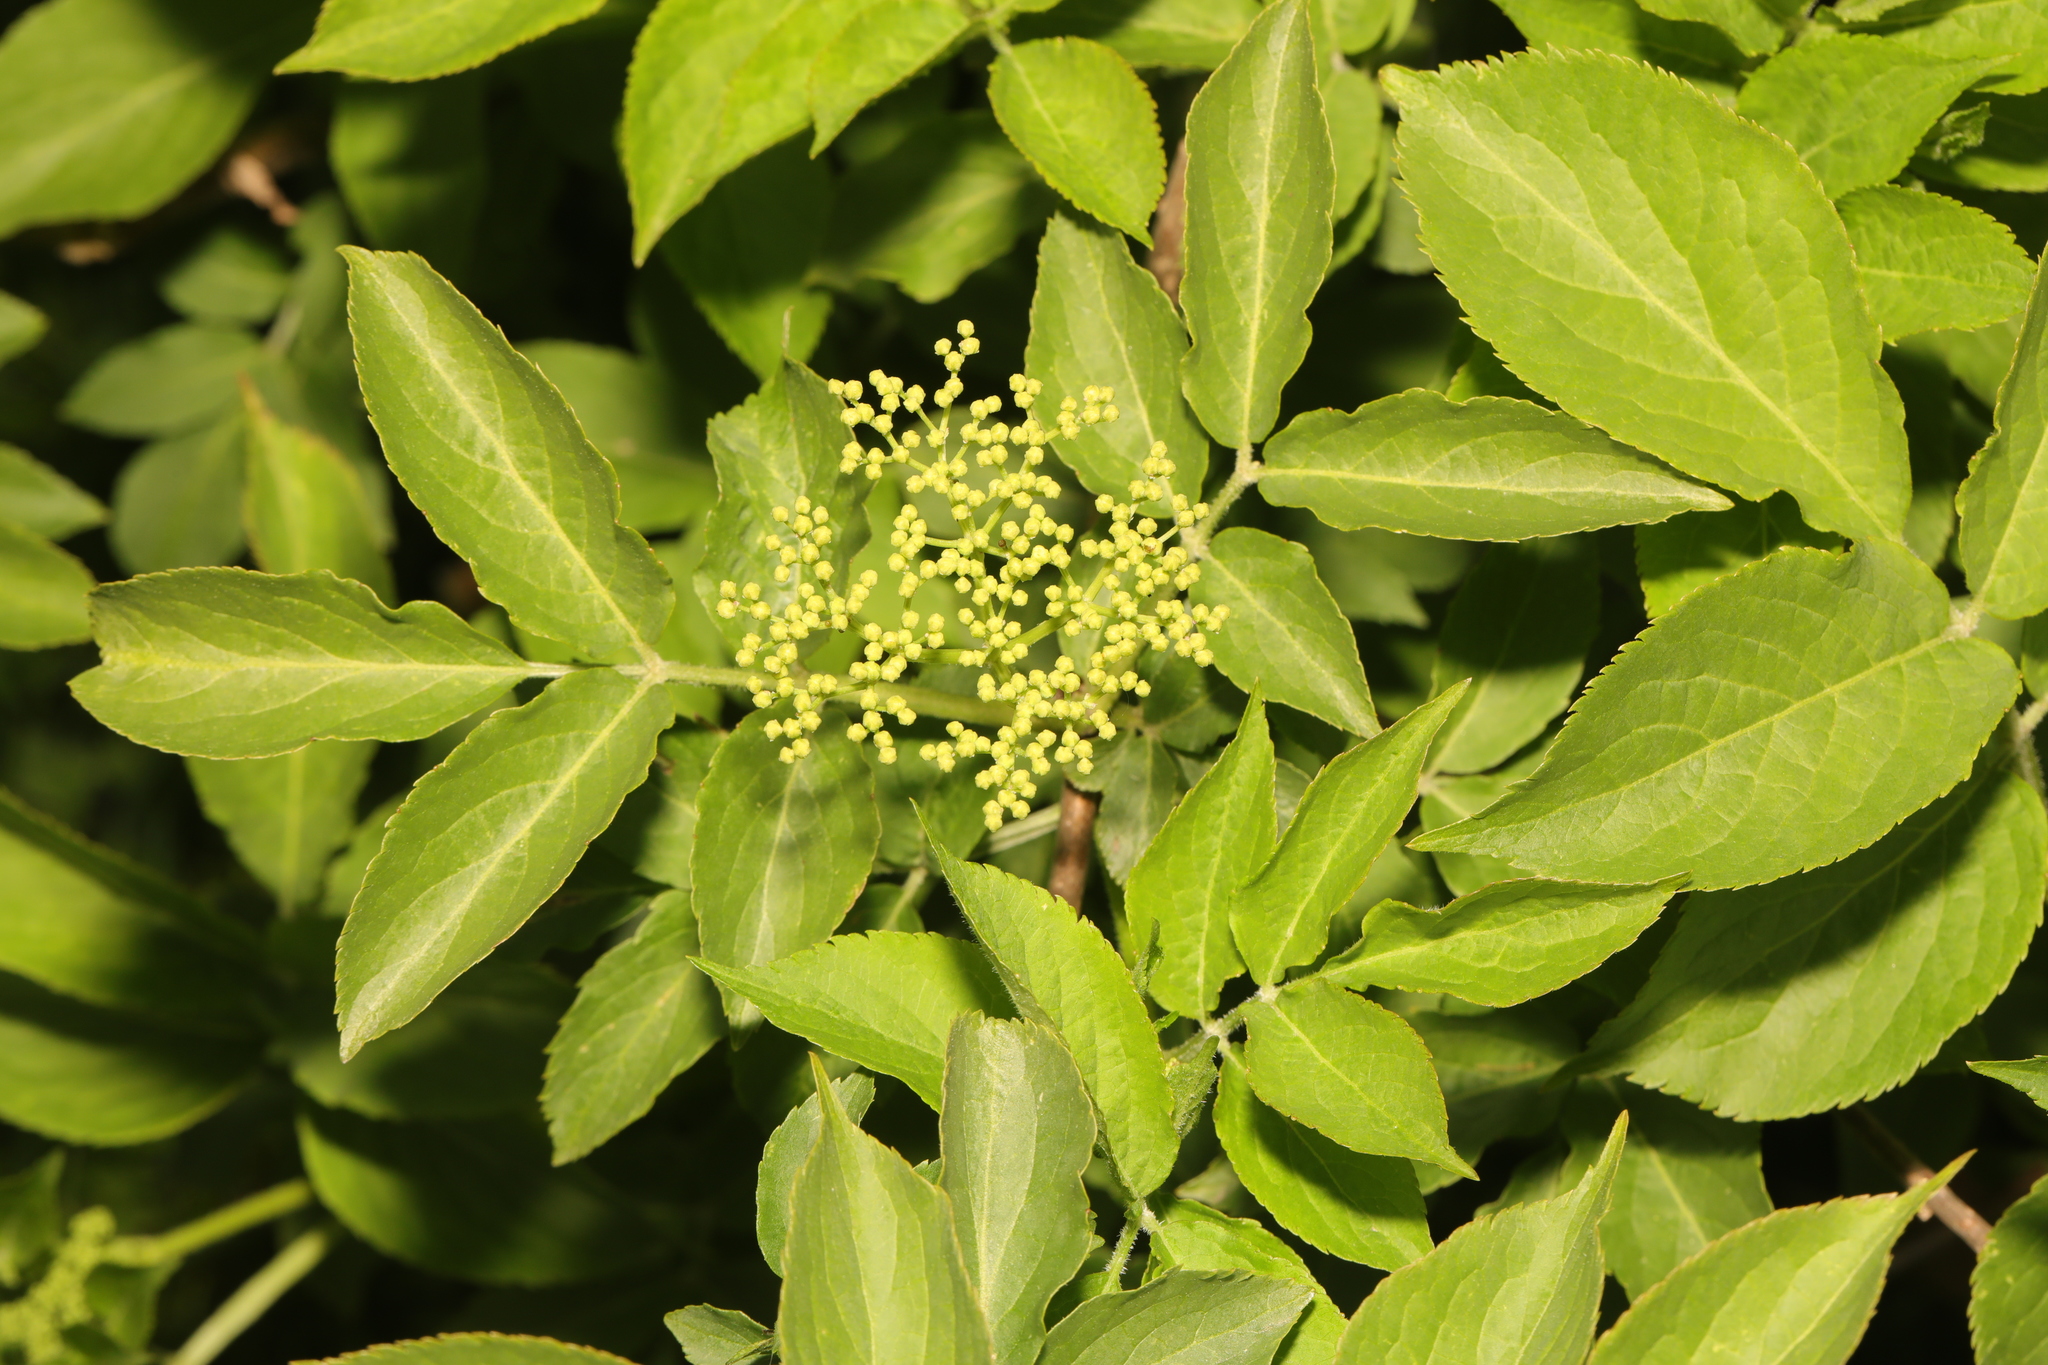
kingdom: Plantae
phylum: Tracheophyta
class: Magnoliopsida
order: Dipsacales
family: Viburnaceae
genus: Sambucus
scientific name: Sambucus nigra
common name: Elder
